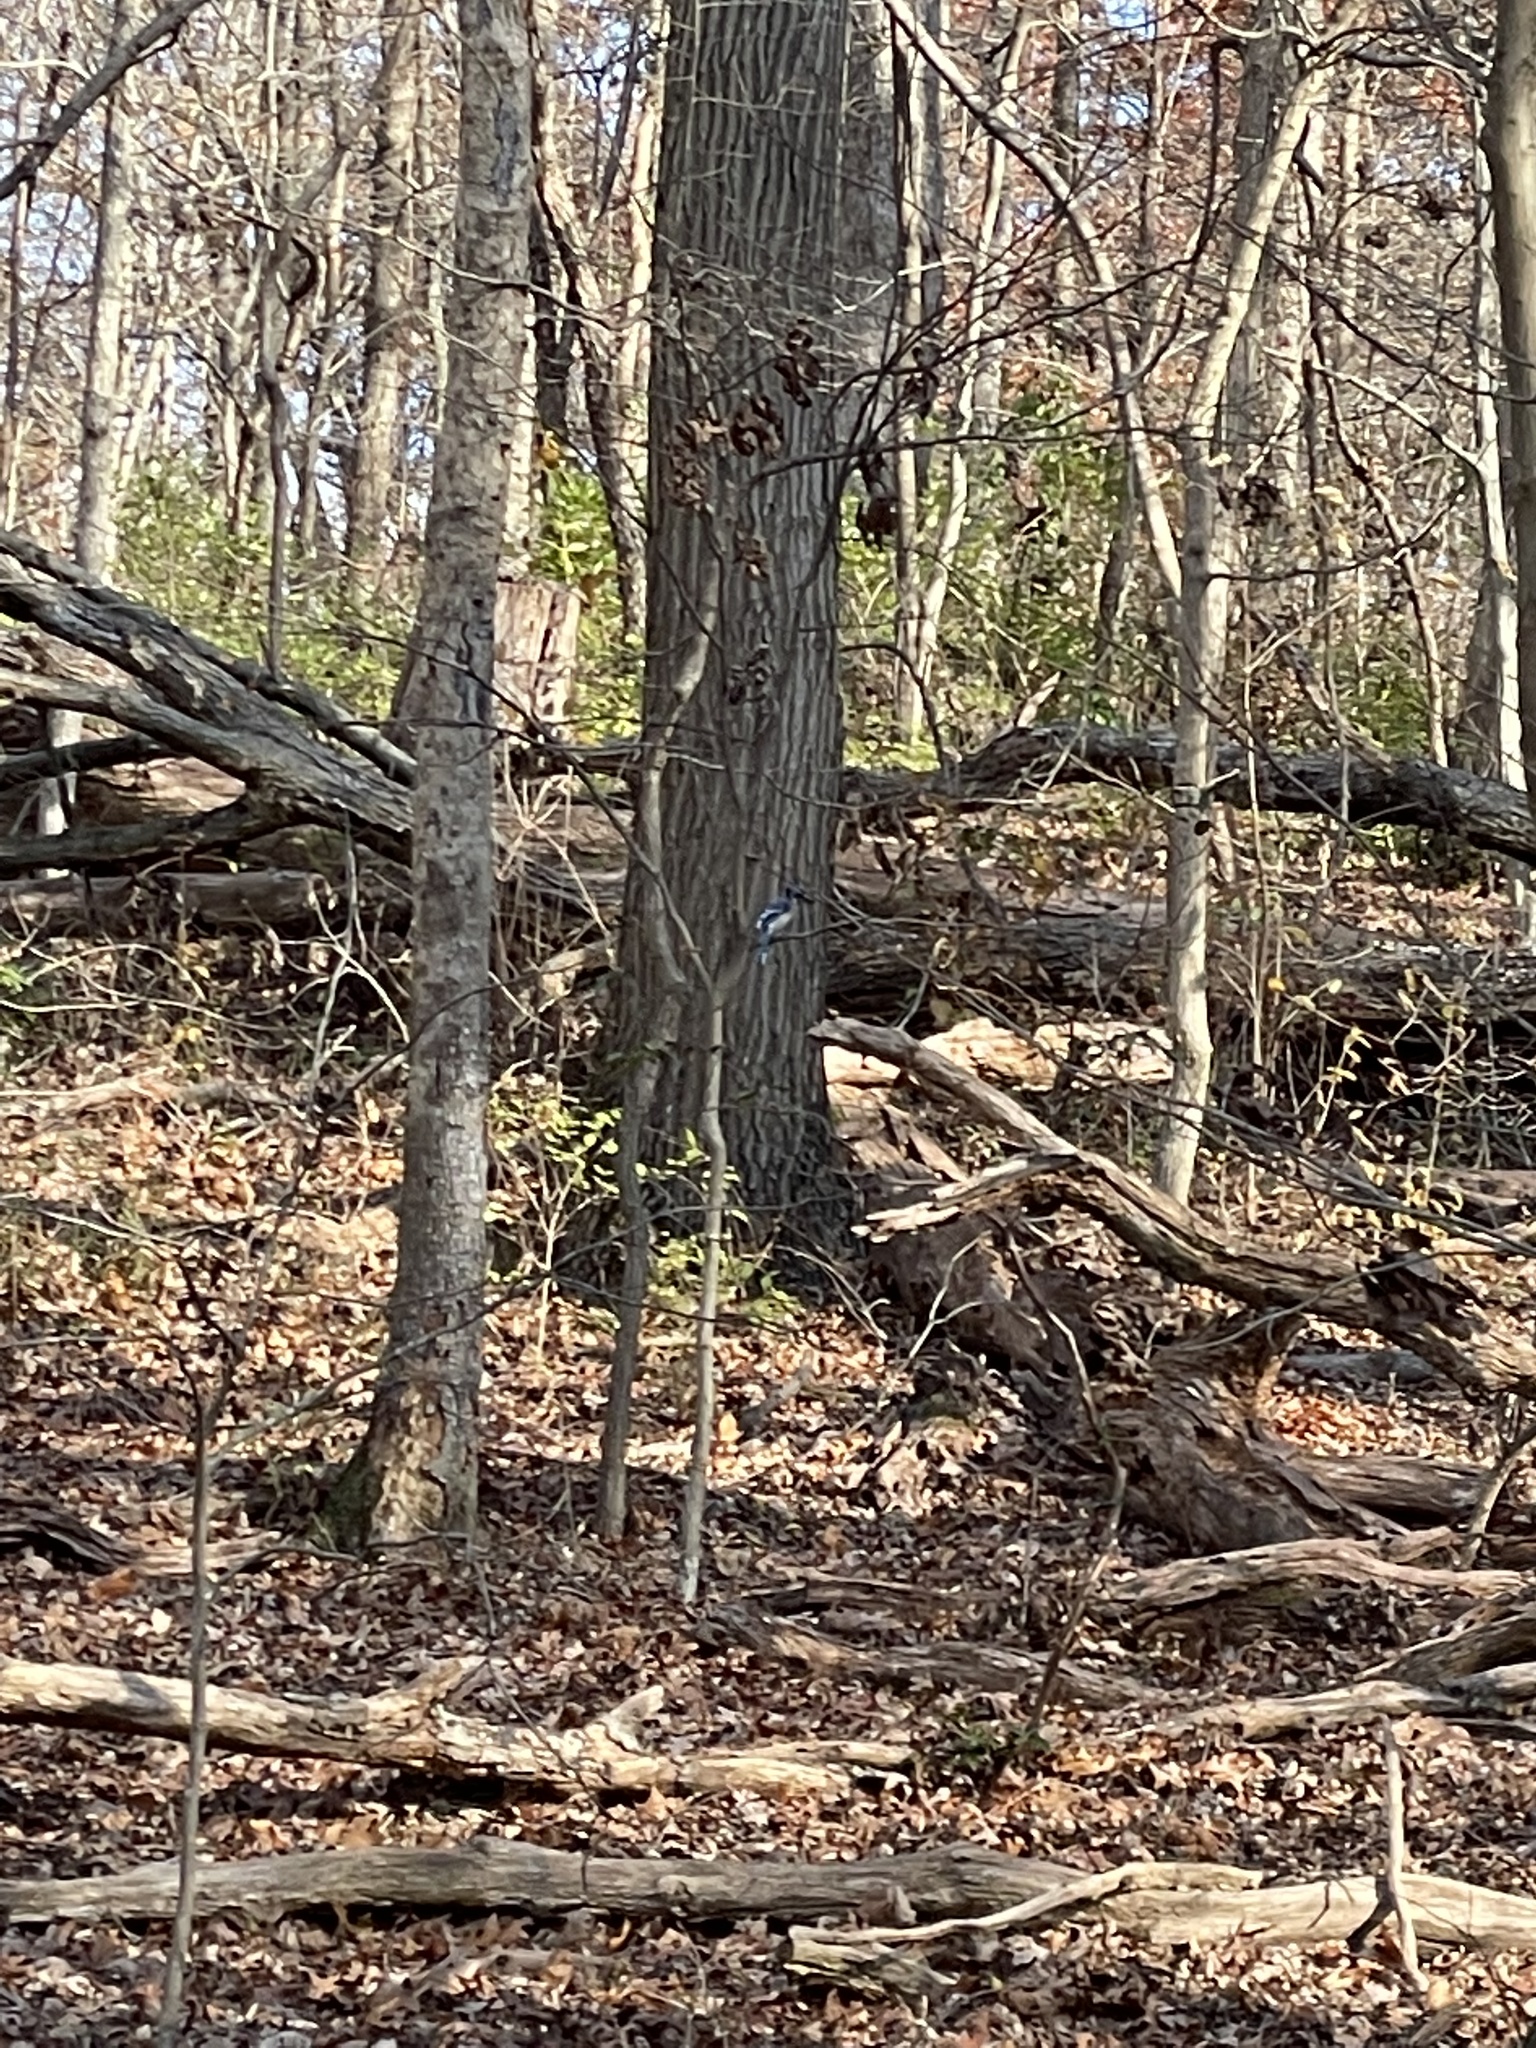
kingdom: Animalia
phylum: Chordata
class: Aves
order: Passeriformes
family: Corvidae
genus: Cyanocitta
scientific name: Cyanocitta cristata
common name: Blue jay
